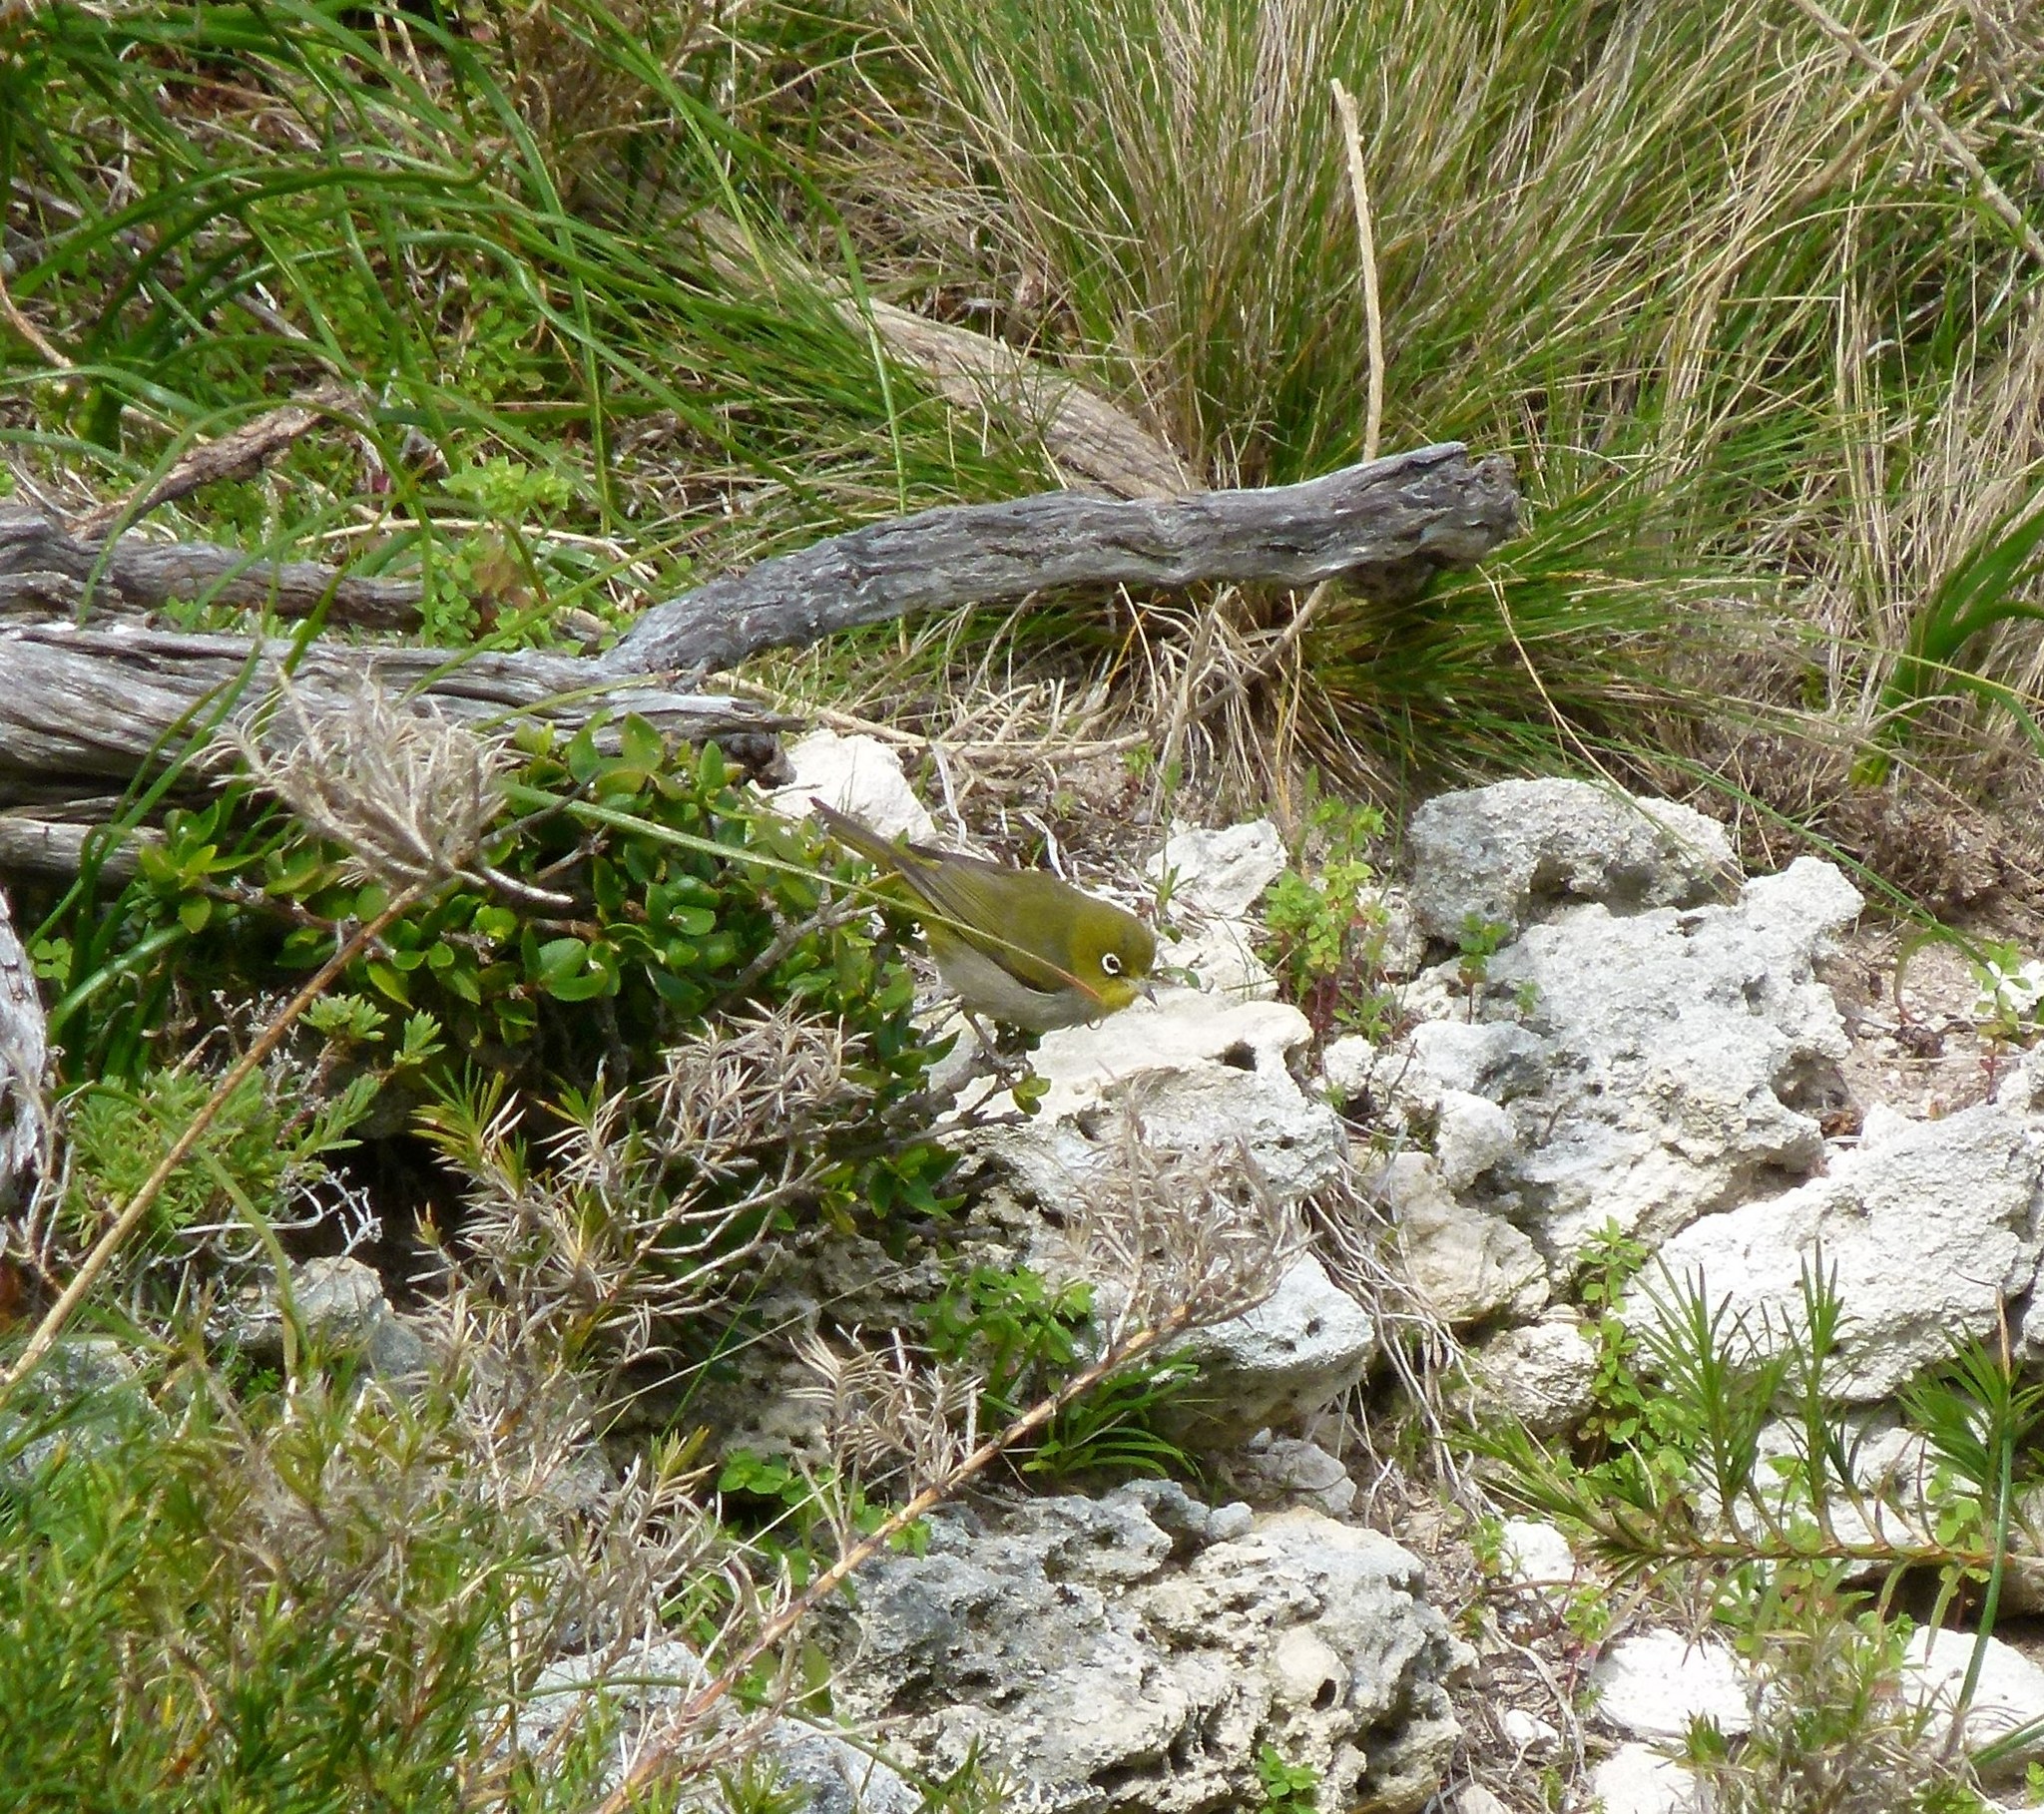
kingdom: Animalia
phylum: Chordata
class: Aves
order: Passeriformes
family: Zosteropidae
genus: Zosterops
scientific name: Zosterops lateralis
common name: Silvereye
